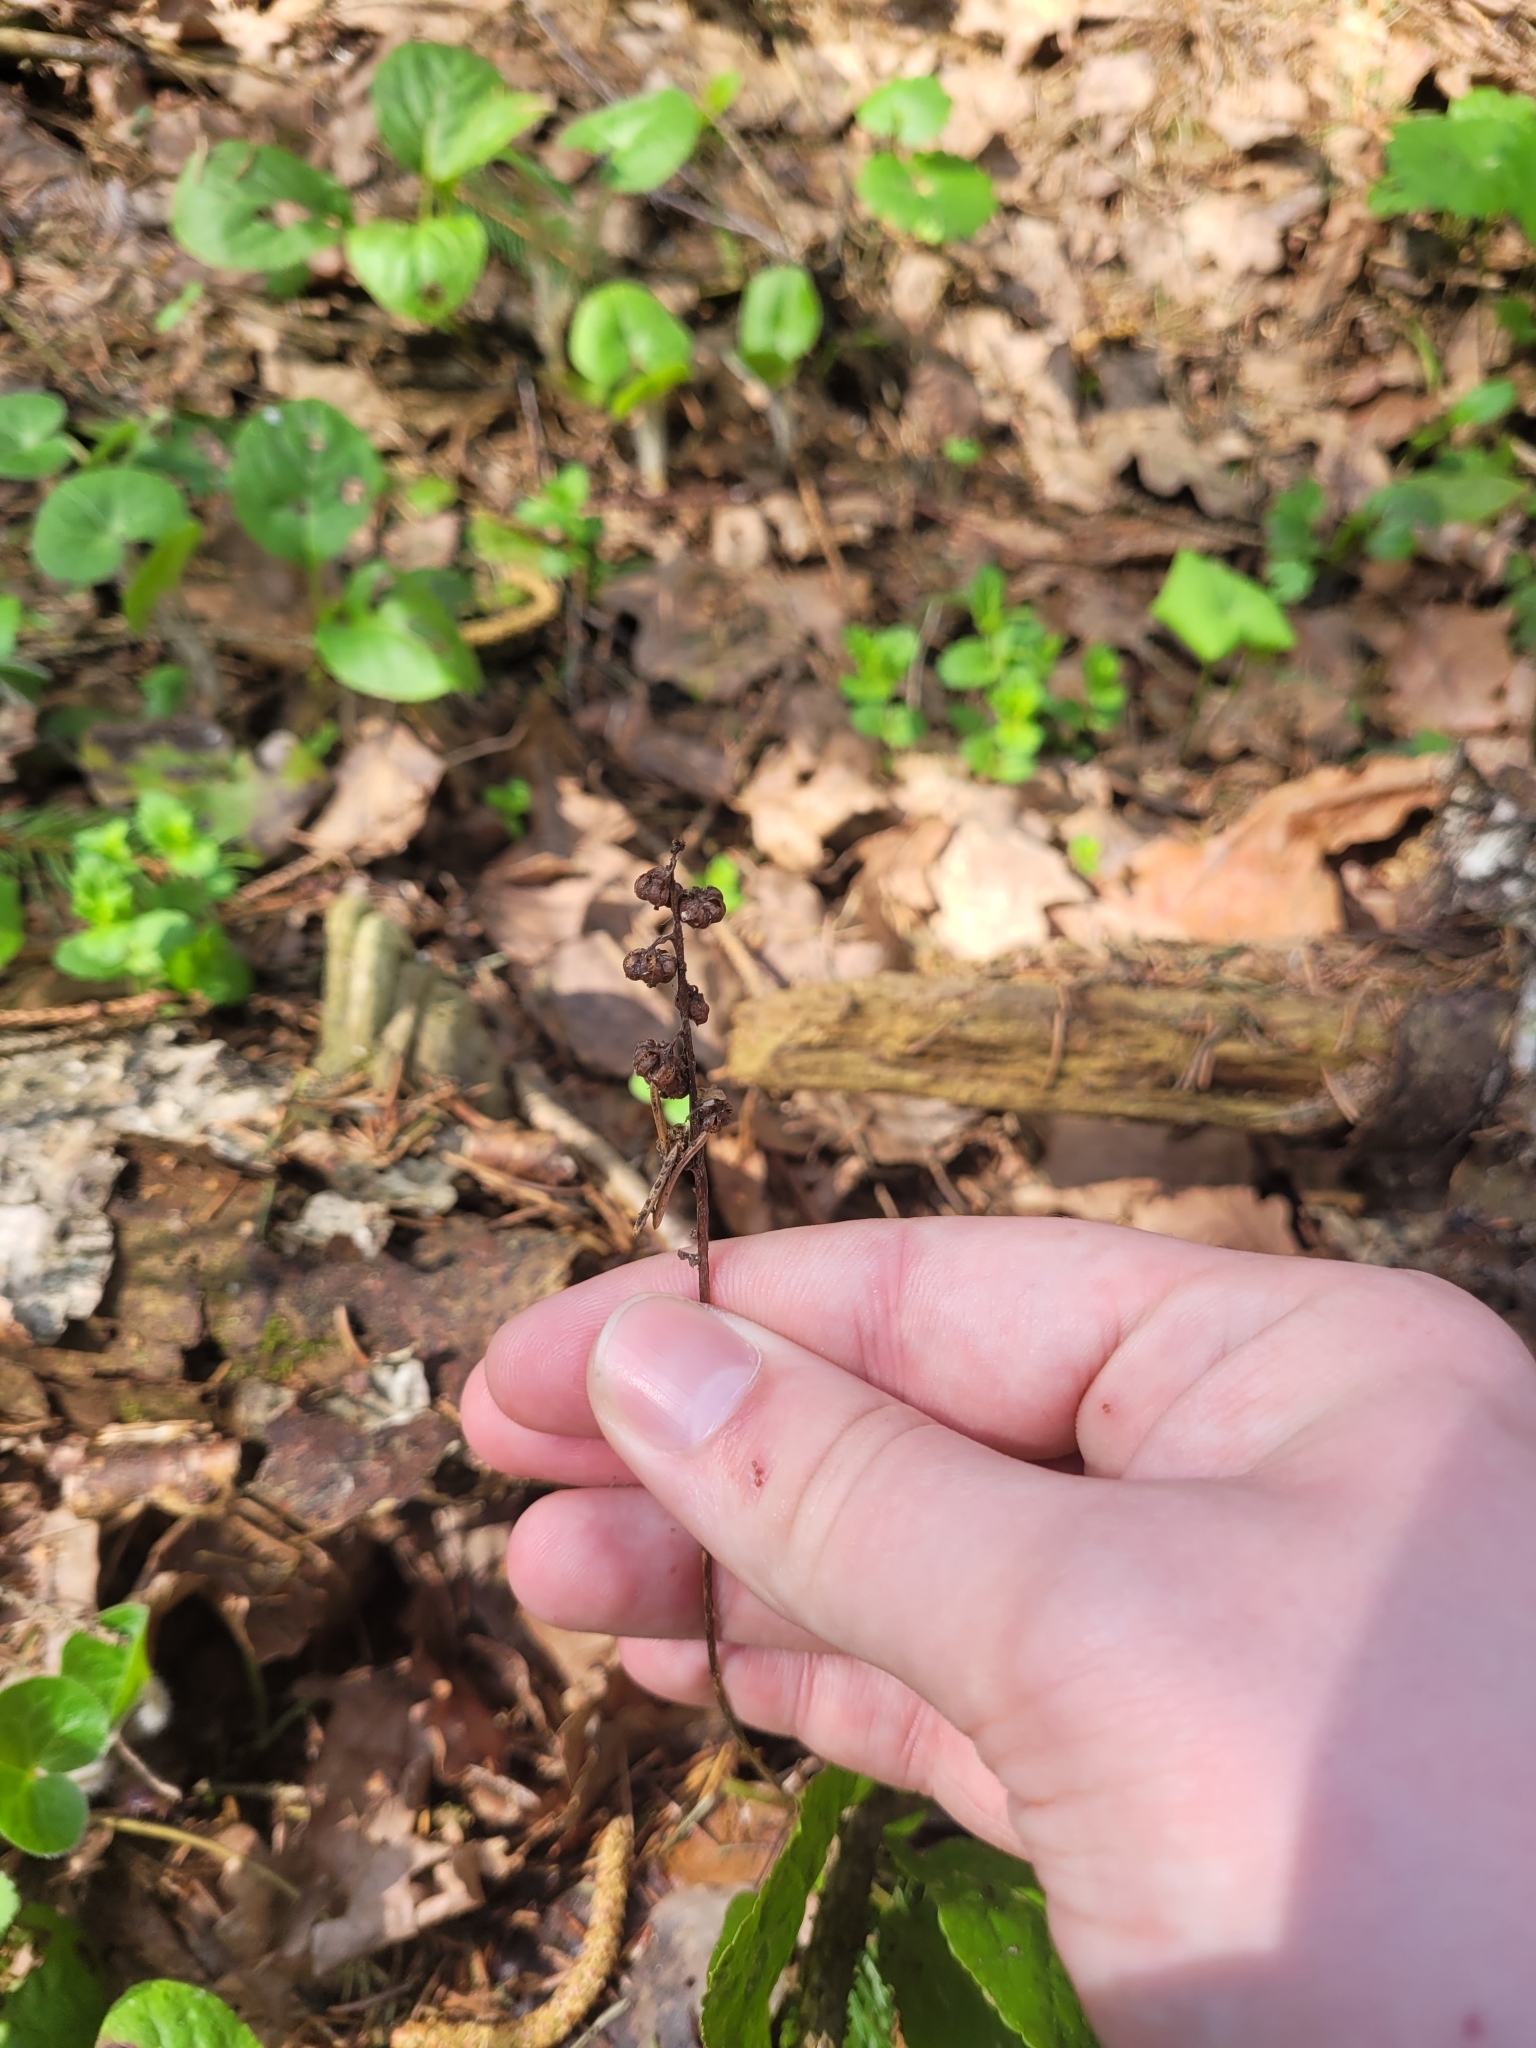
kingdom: Plantae
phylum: Tracheophyta
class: Magnoliopsida
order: Ericales
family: Ericaceae
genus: Pyrola
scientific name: Pyrola minor
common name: Common wintergreen
